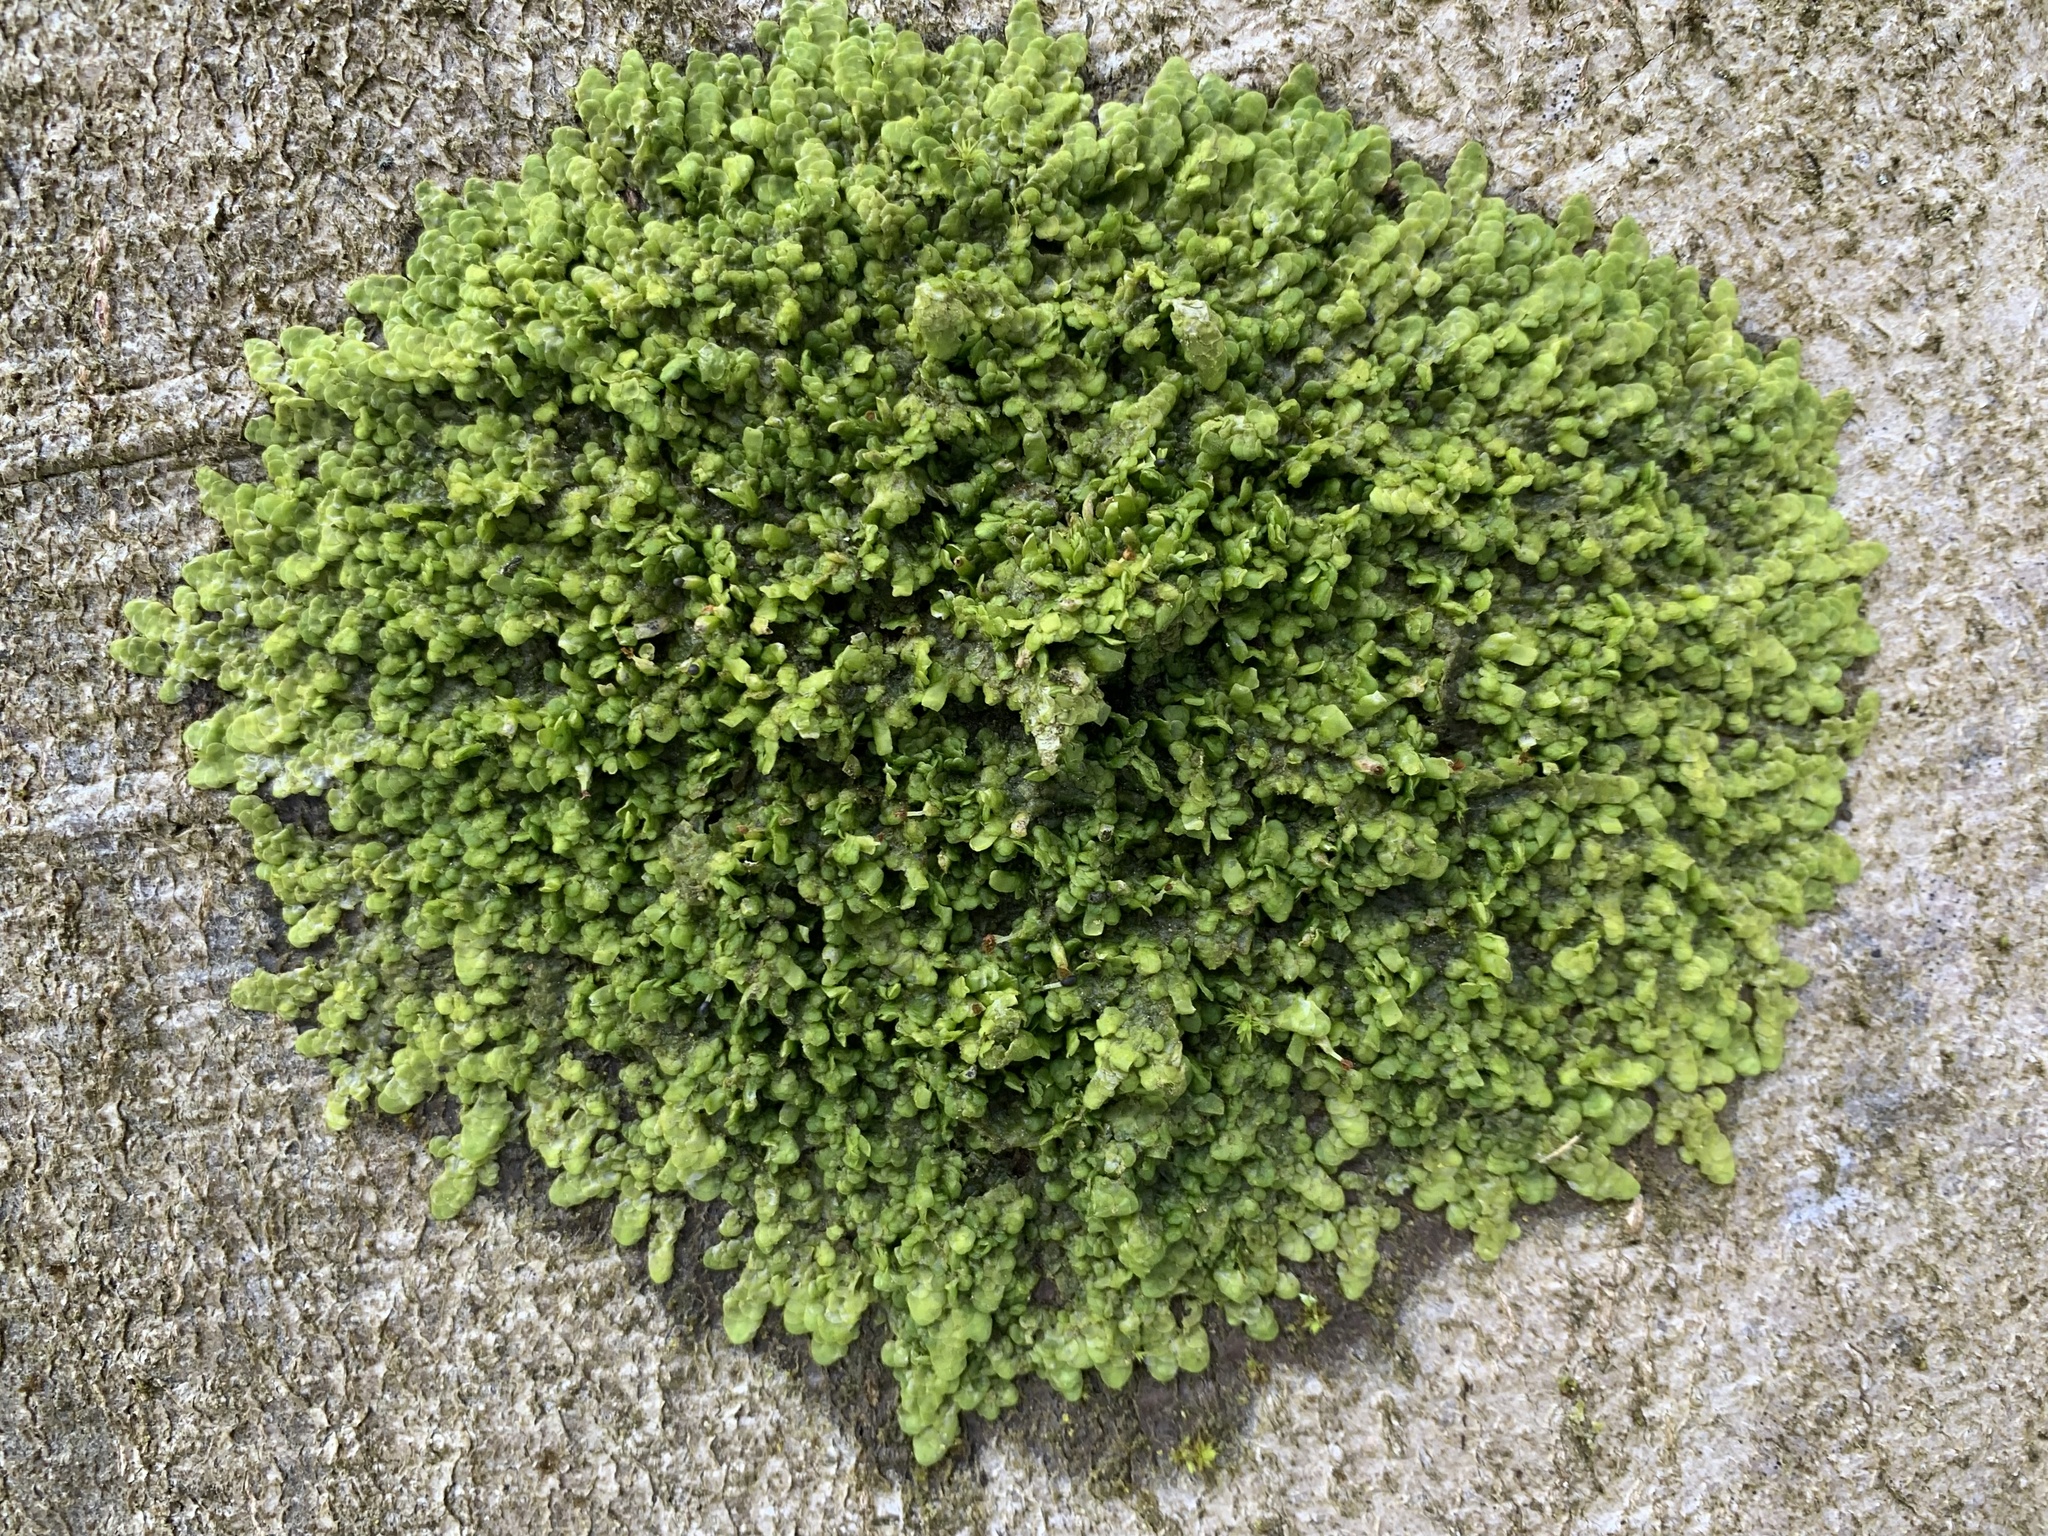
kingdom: Plantae
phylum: Marchantiophyta
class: Jungermanniopsida
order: Porellales
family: Radulaceae
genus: Radula
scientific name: Radula complanata
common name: Flat-leaved scalewort
